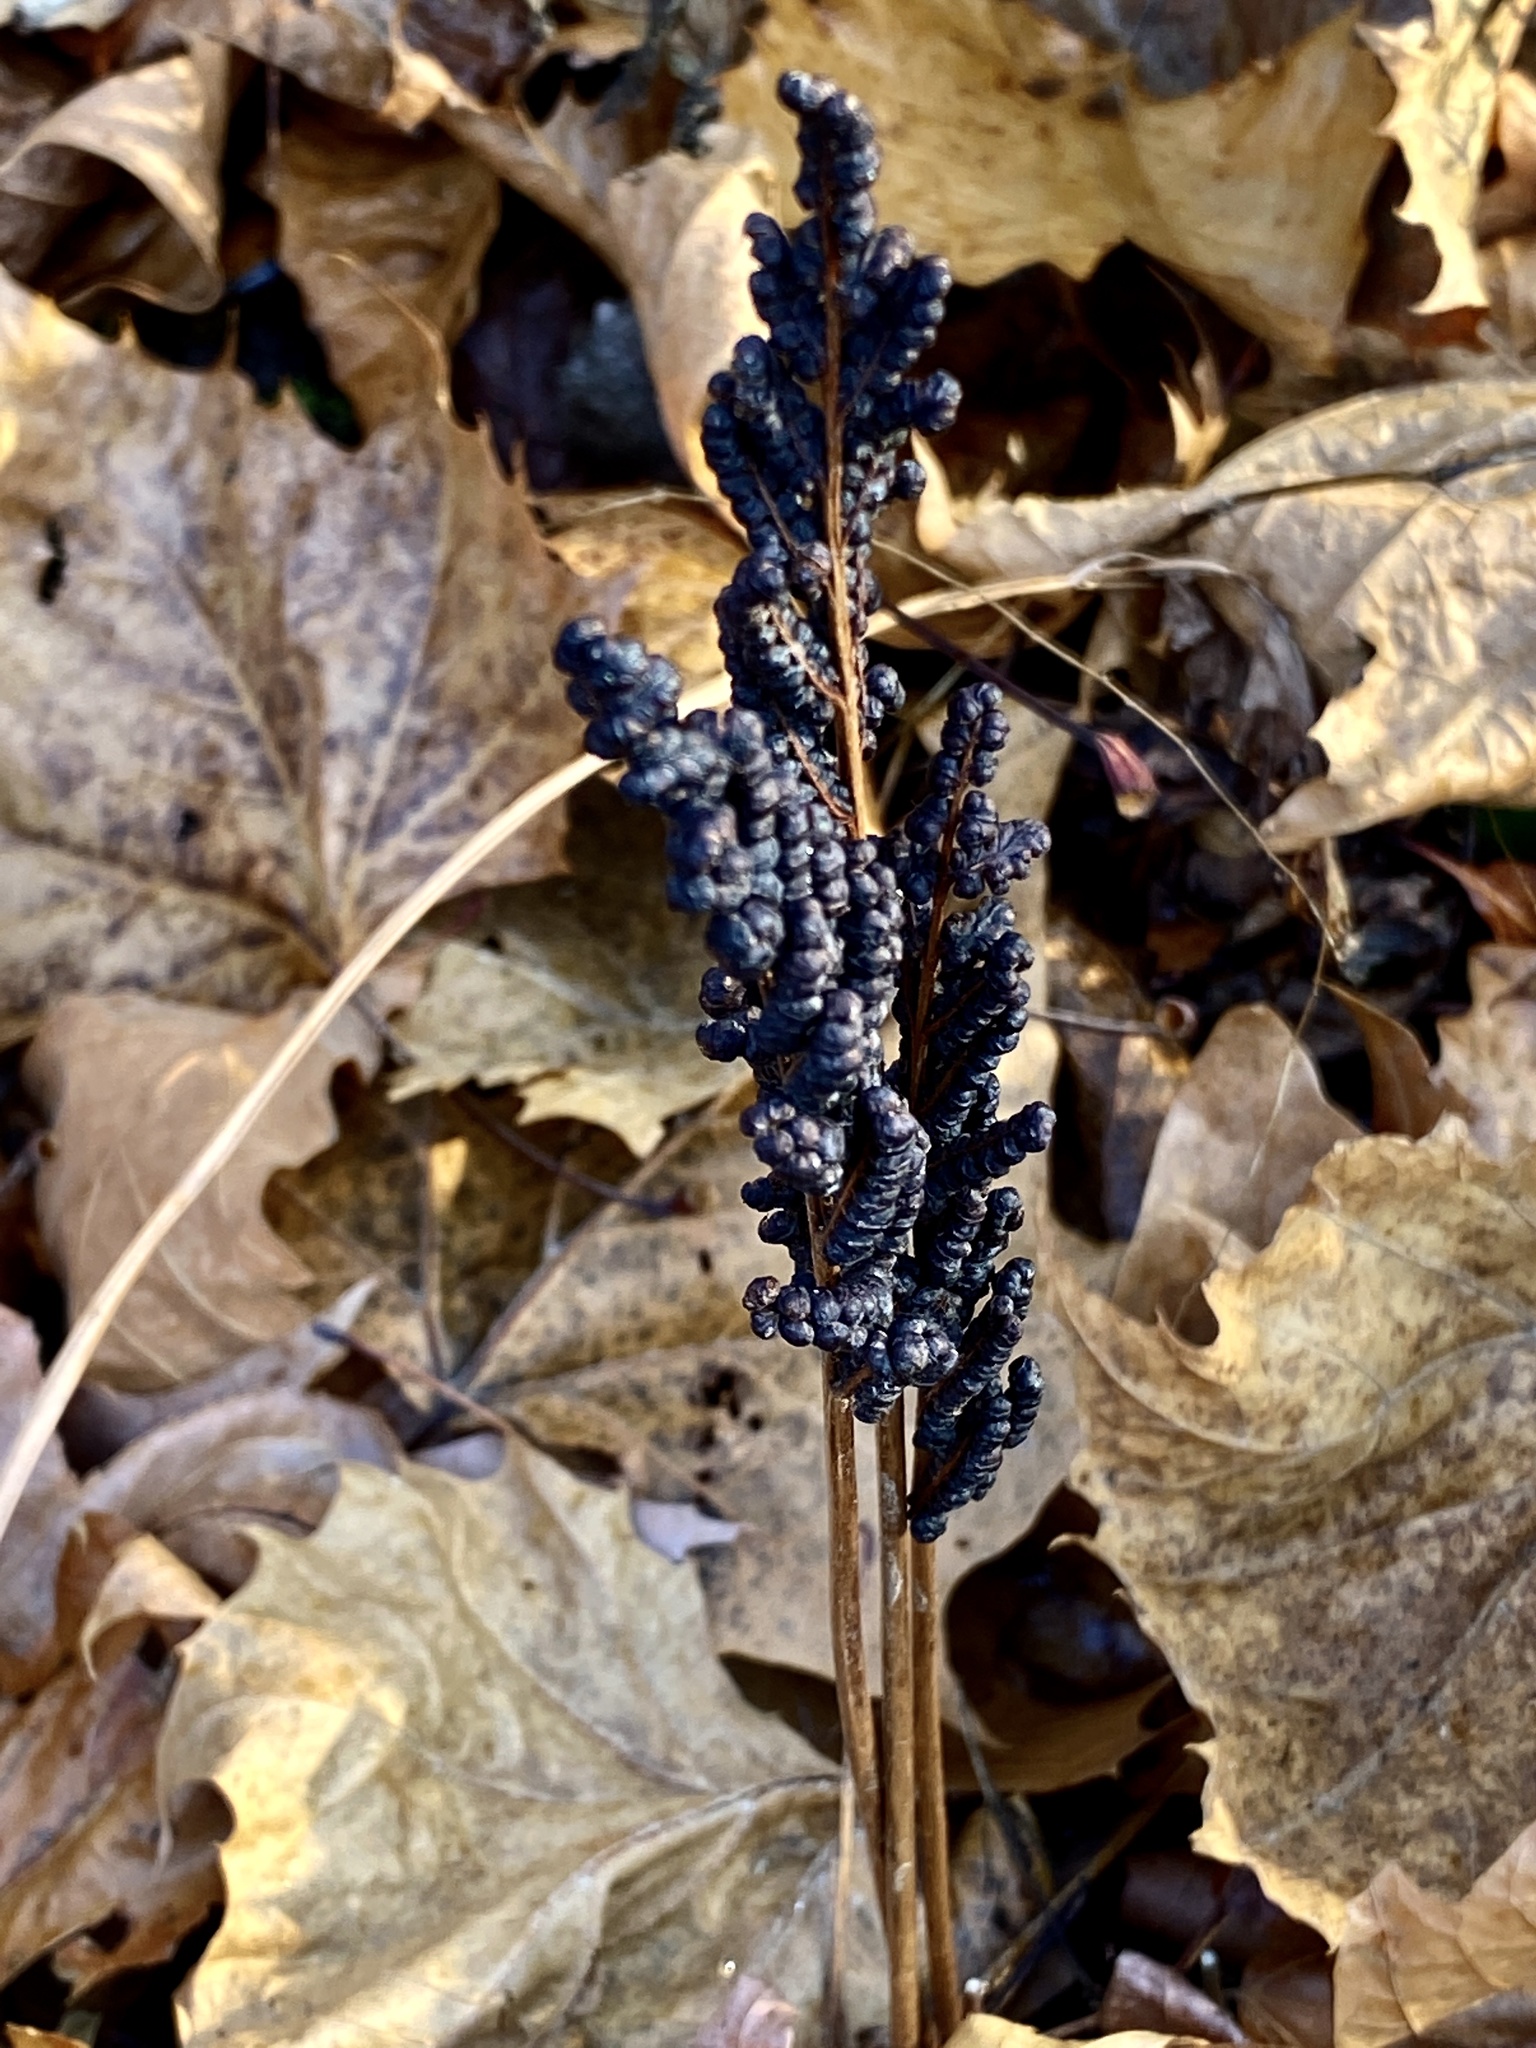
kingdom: Plantae
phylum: Tracheophyta
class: Polypodiopsida
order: Polypodiales
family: Onocleaceae
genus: Onoclea
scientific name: Onoclea sensibilis
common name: Sensitive fern
